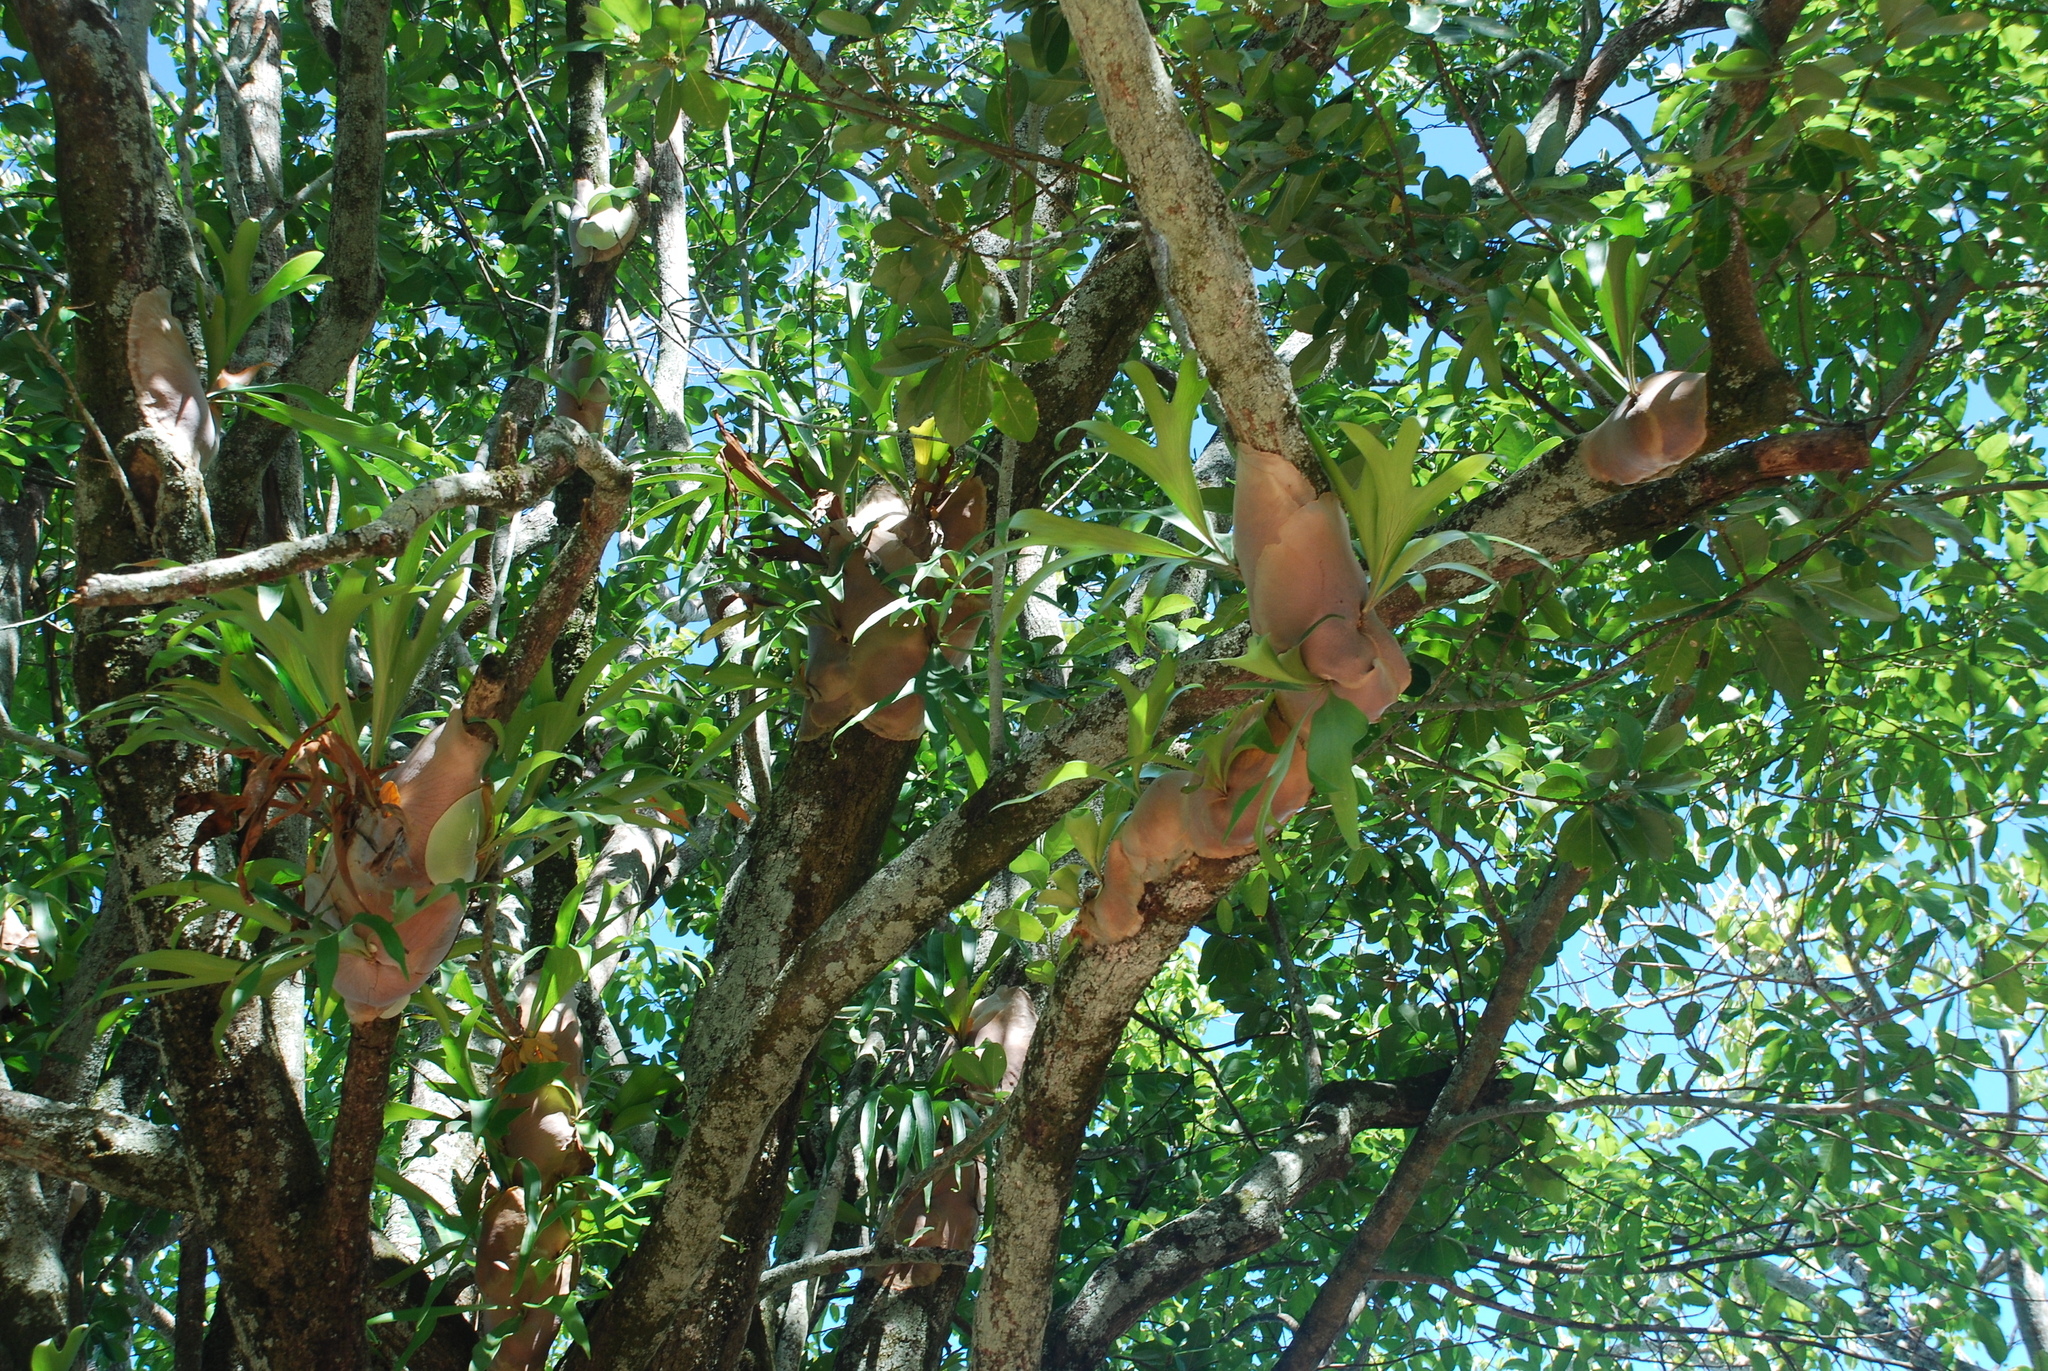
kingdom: Plantae
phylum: Tracheophyta
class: Polypodiopsida
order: Polypodiales
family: Polypodiaceae
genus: Platycerium
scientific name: Platycerium hillii
